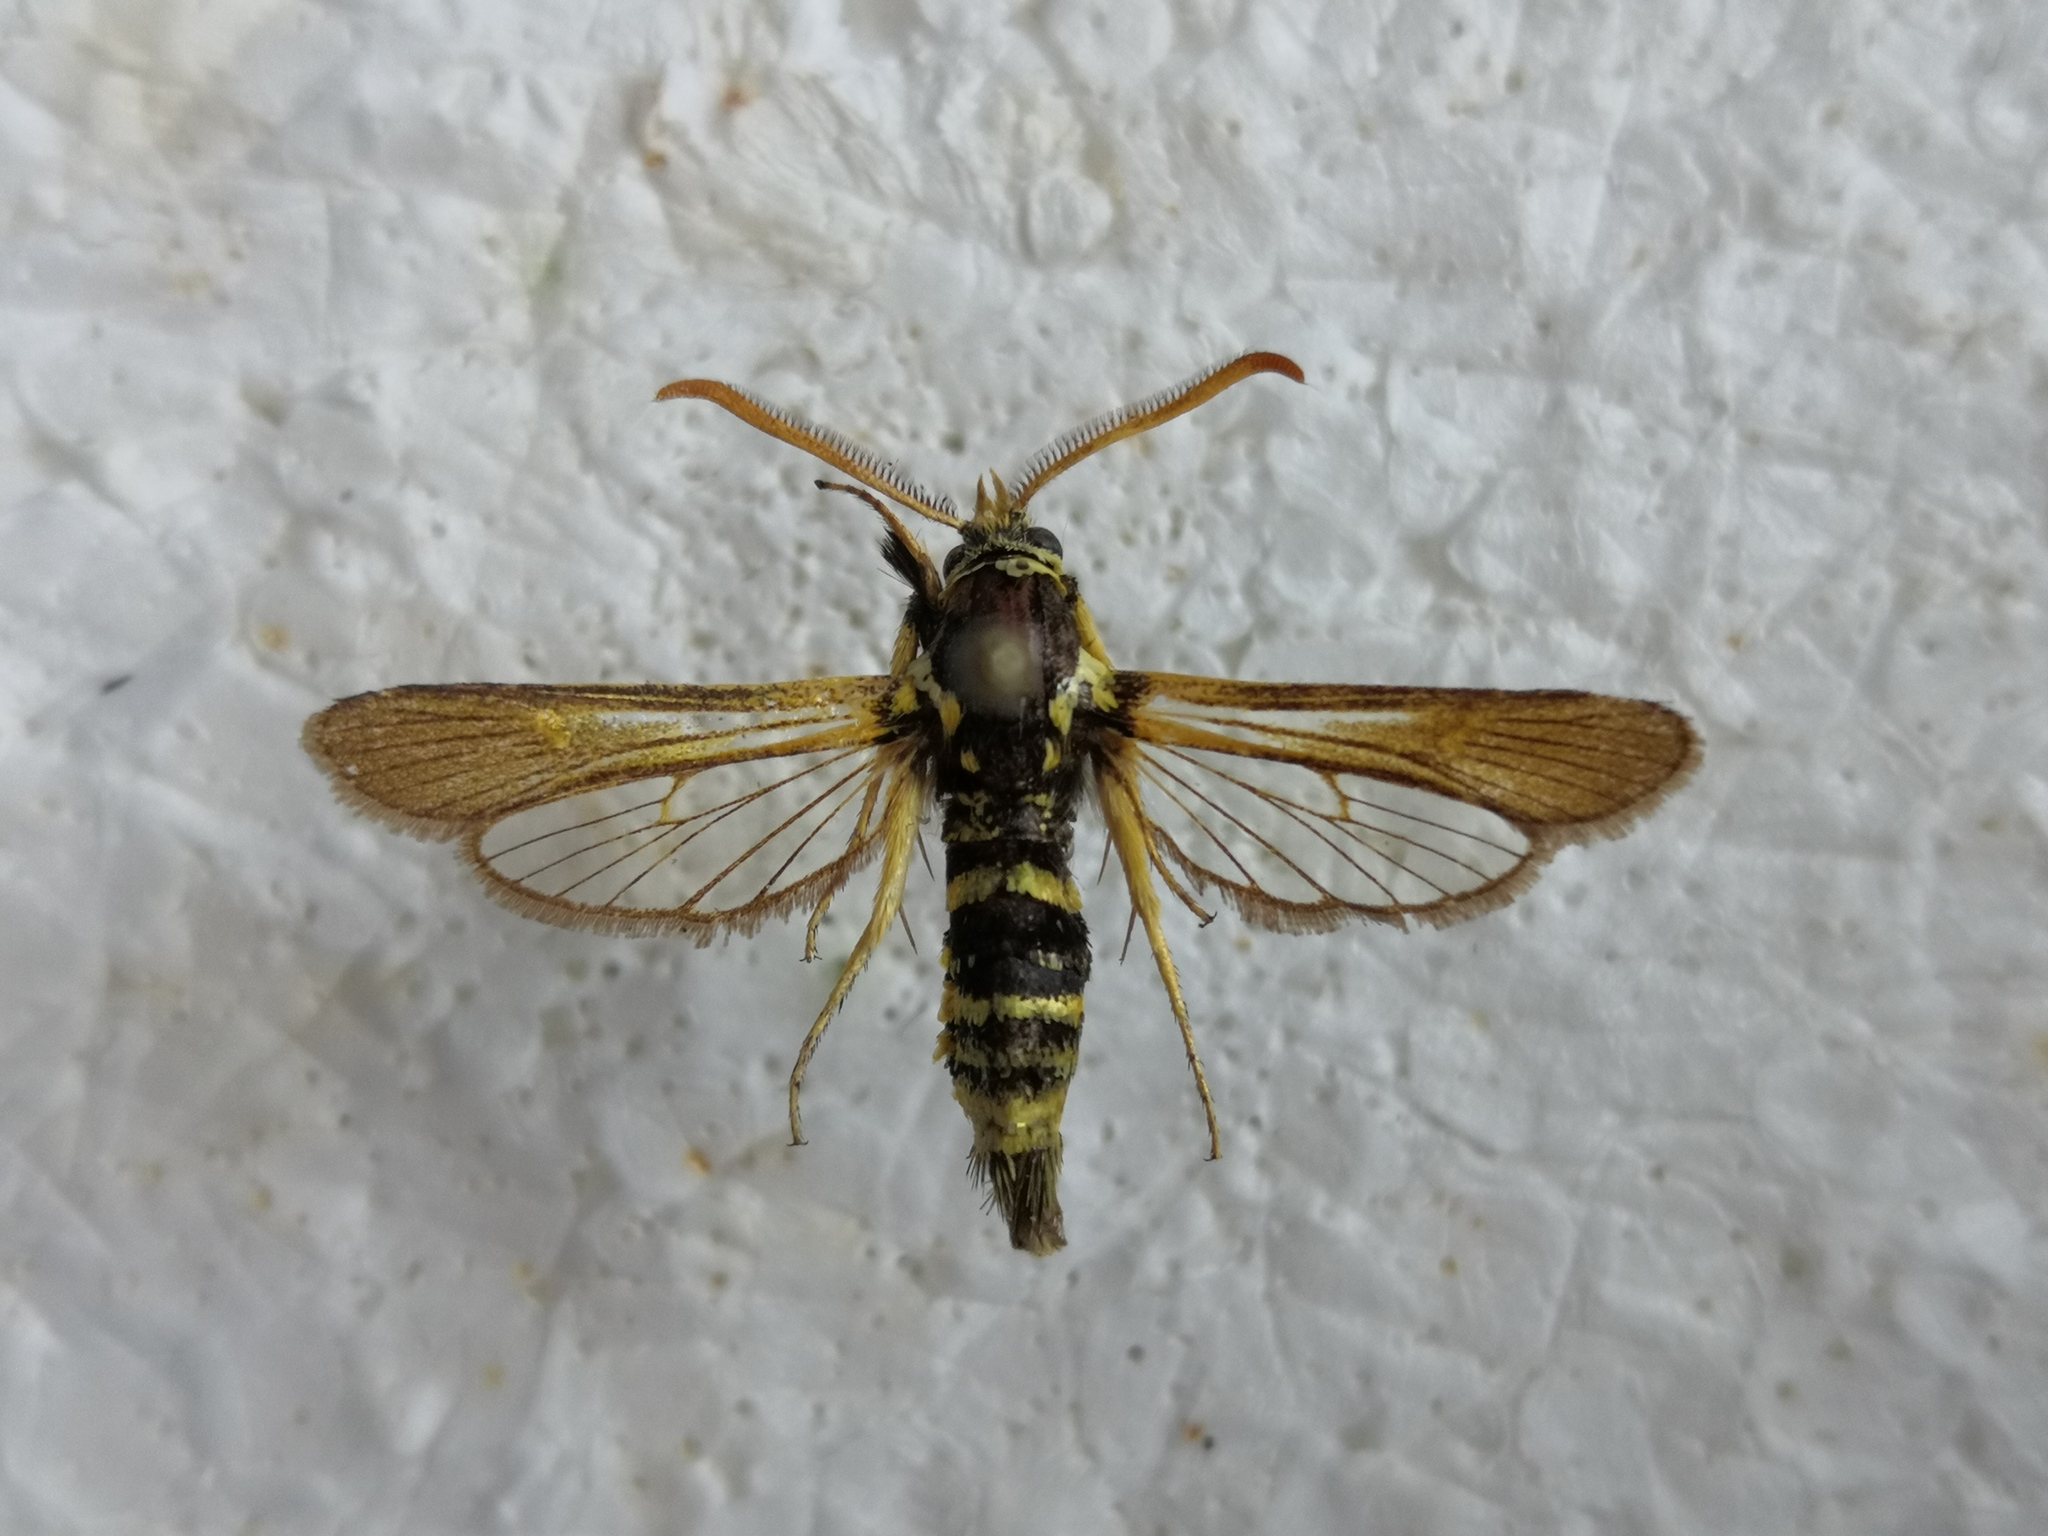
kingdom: Animalia
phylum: Arthropoda
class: Insecta
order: Lepidoptera
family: Sesiidae
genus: Paranthrene
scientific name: Paranthrene tabaniformis
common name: Dusky clearwing
